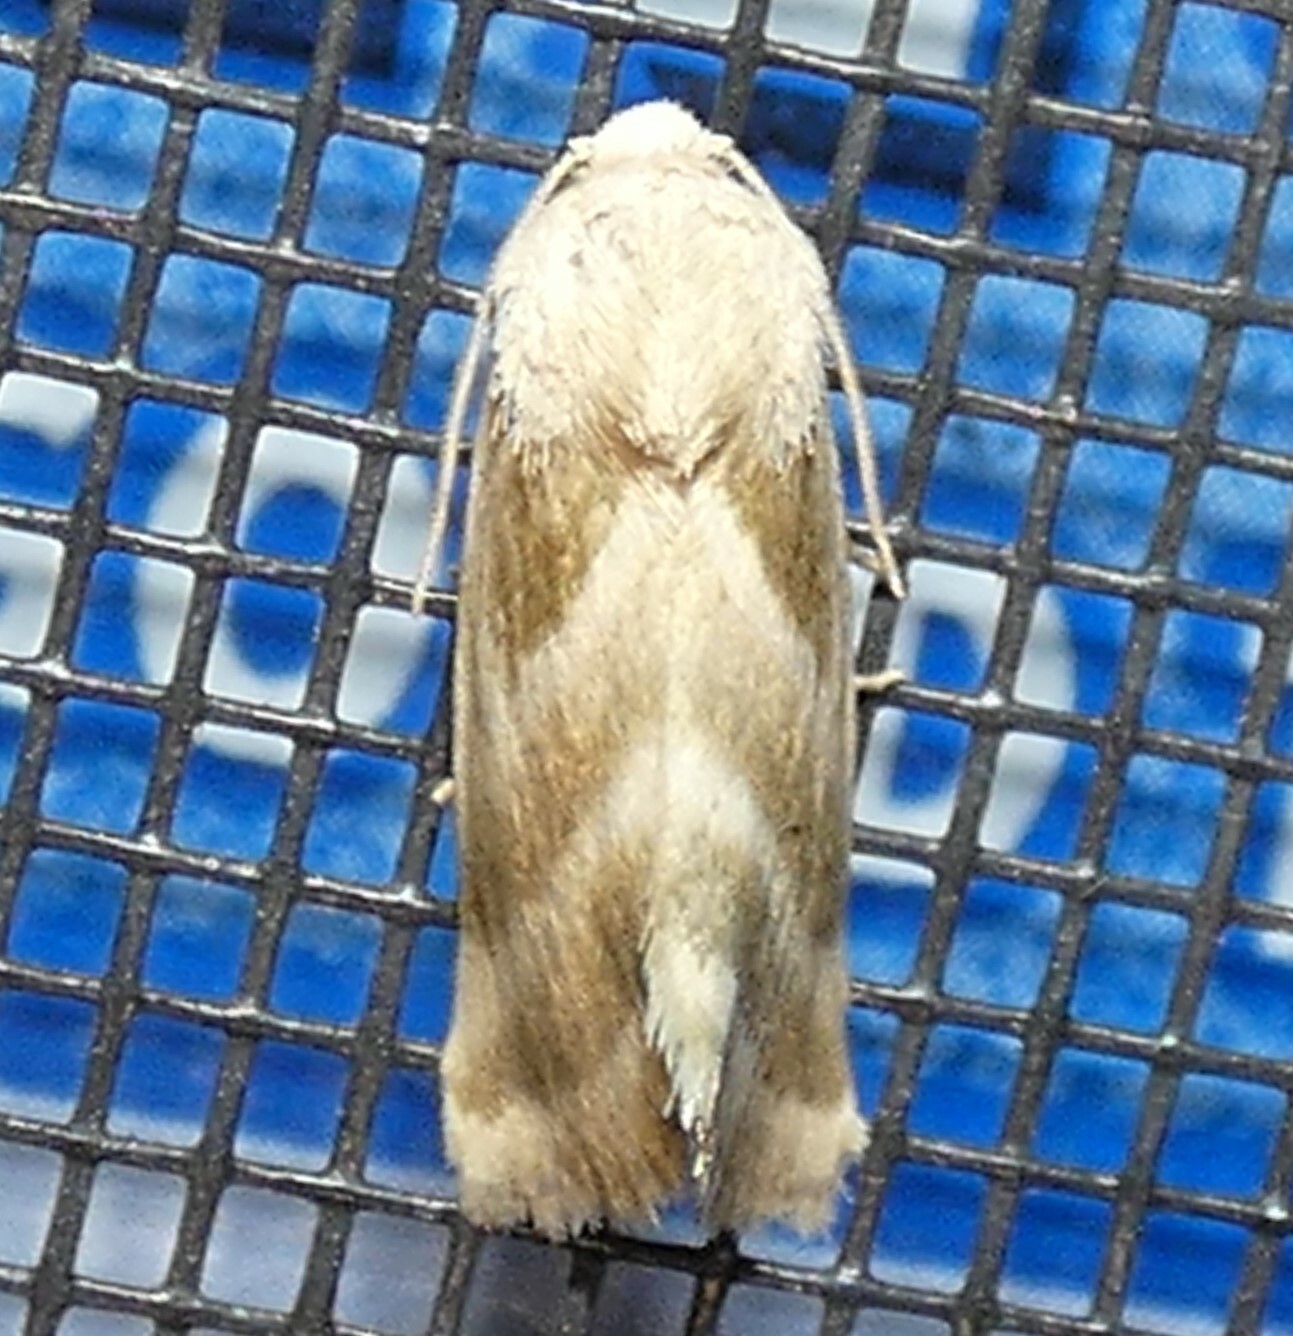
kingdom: Animalia
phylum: Arthropoda
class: Insecta
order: Lepidoptera
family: Noctuidae
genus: Schinia
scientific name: Schinia trifascia
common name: Three-lined flower moth
